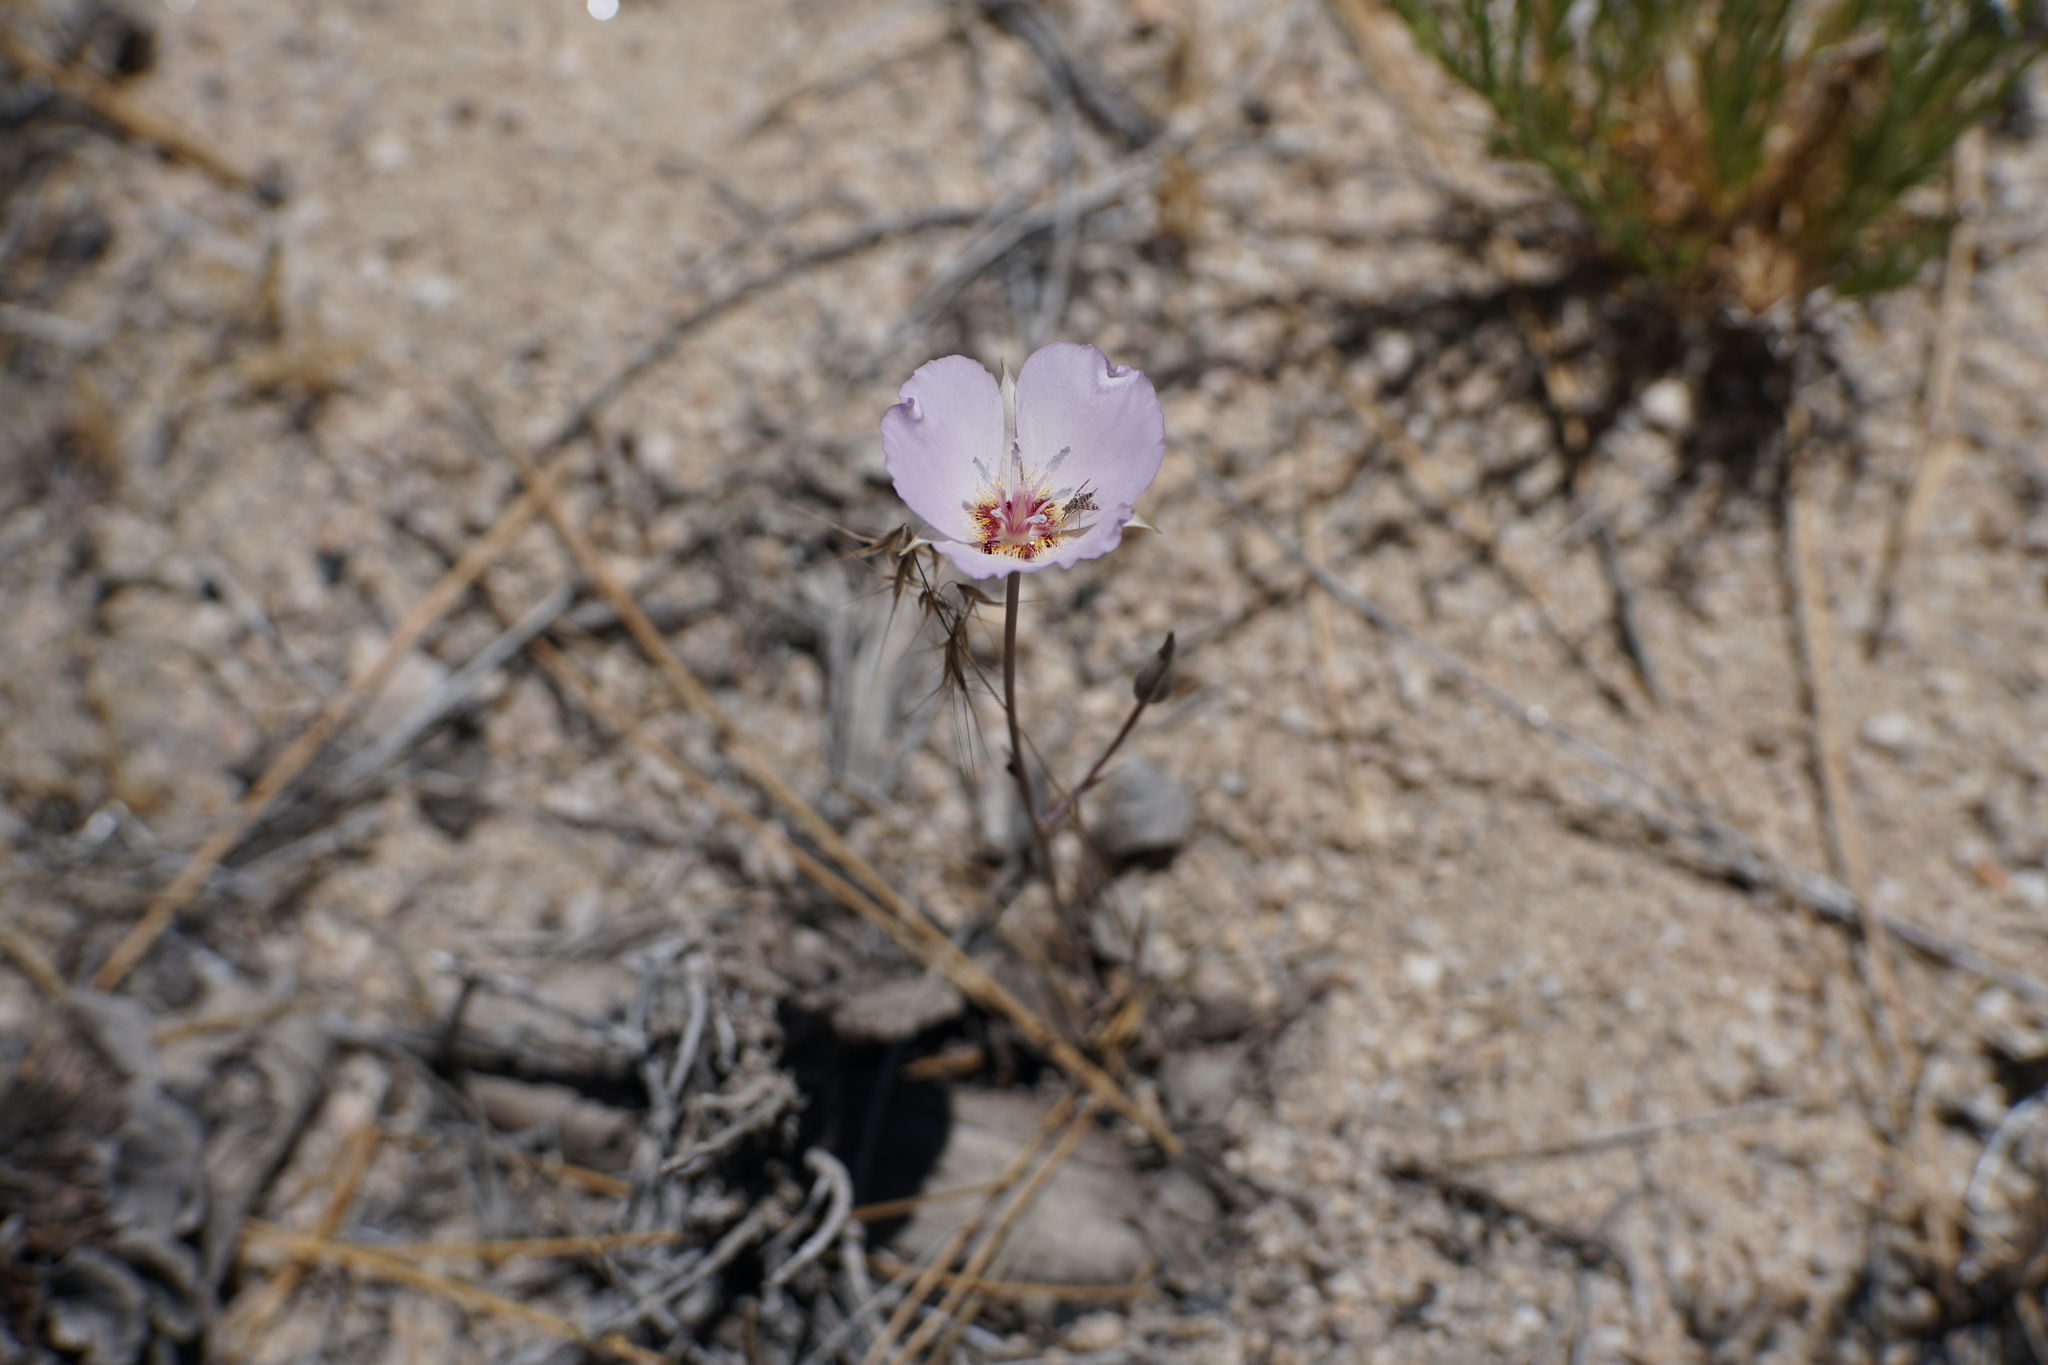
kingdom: Plantae
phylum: Tracheophyta
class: Liliopsida
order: Liliales
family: Liliaceae
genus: Calochortus
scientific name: Calochortus palmeri
